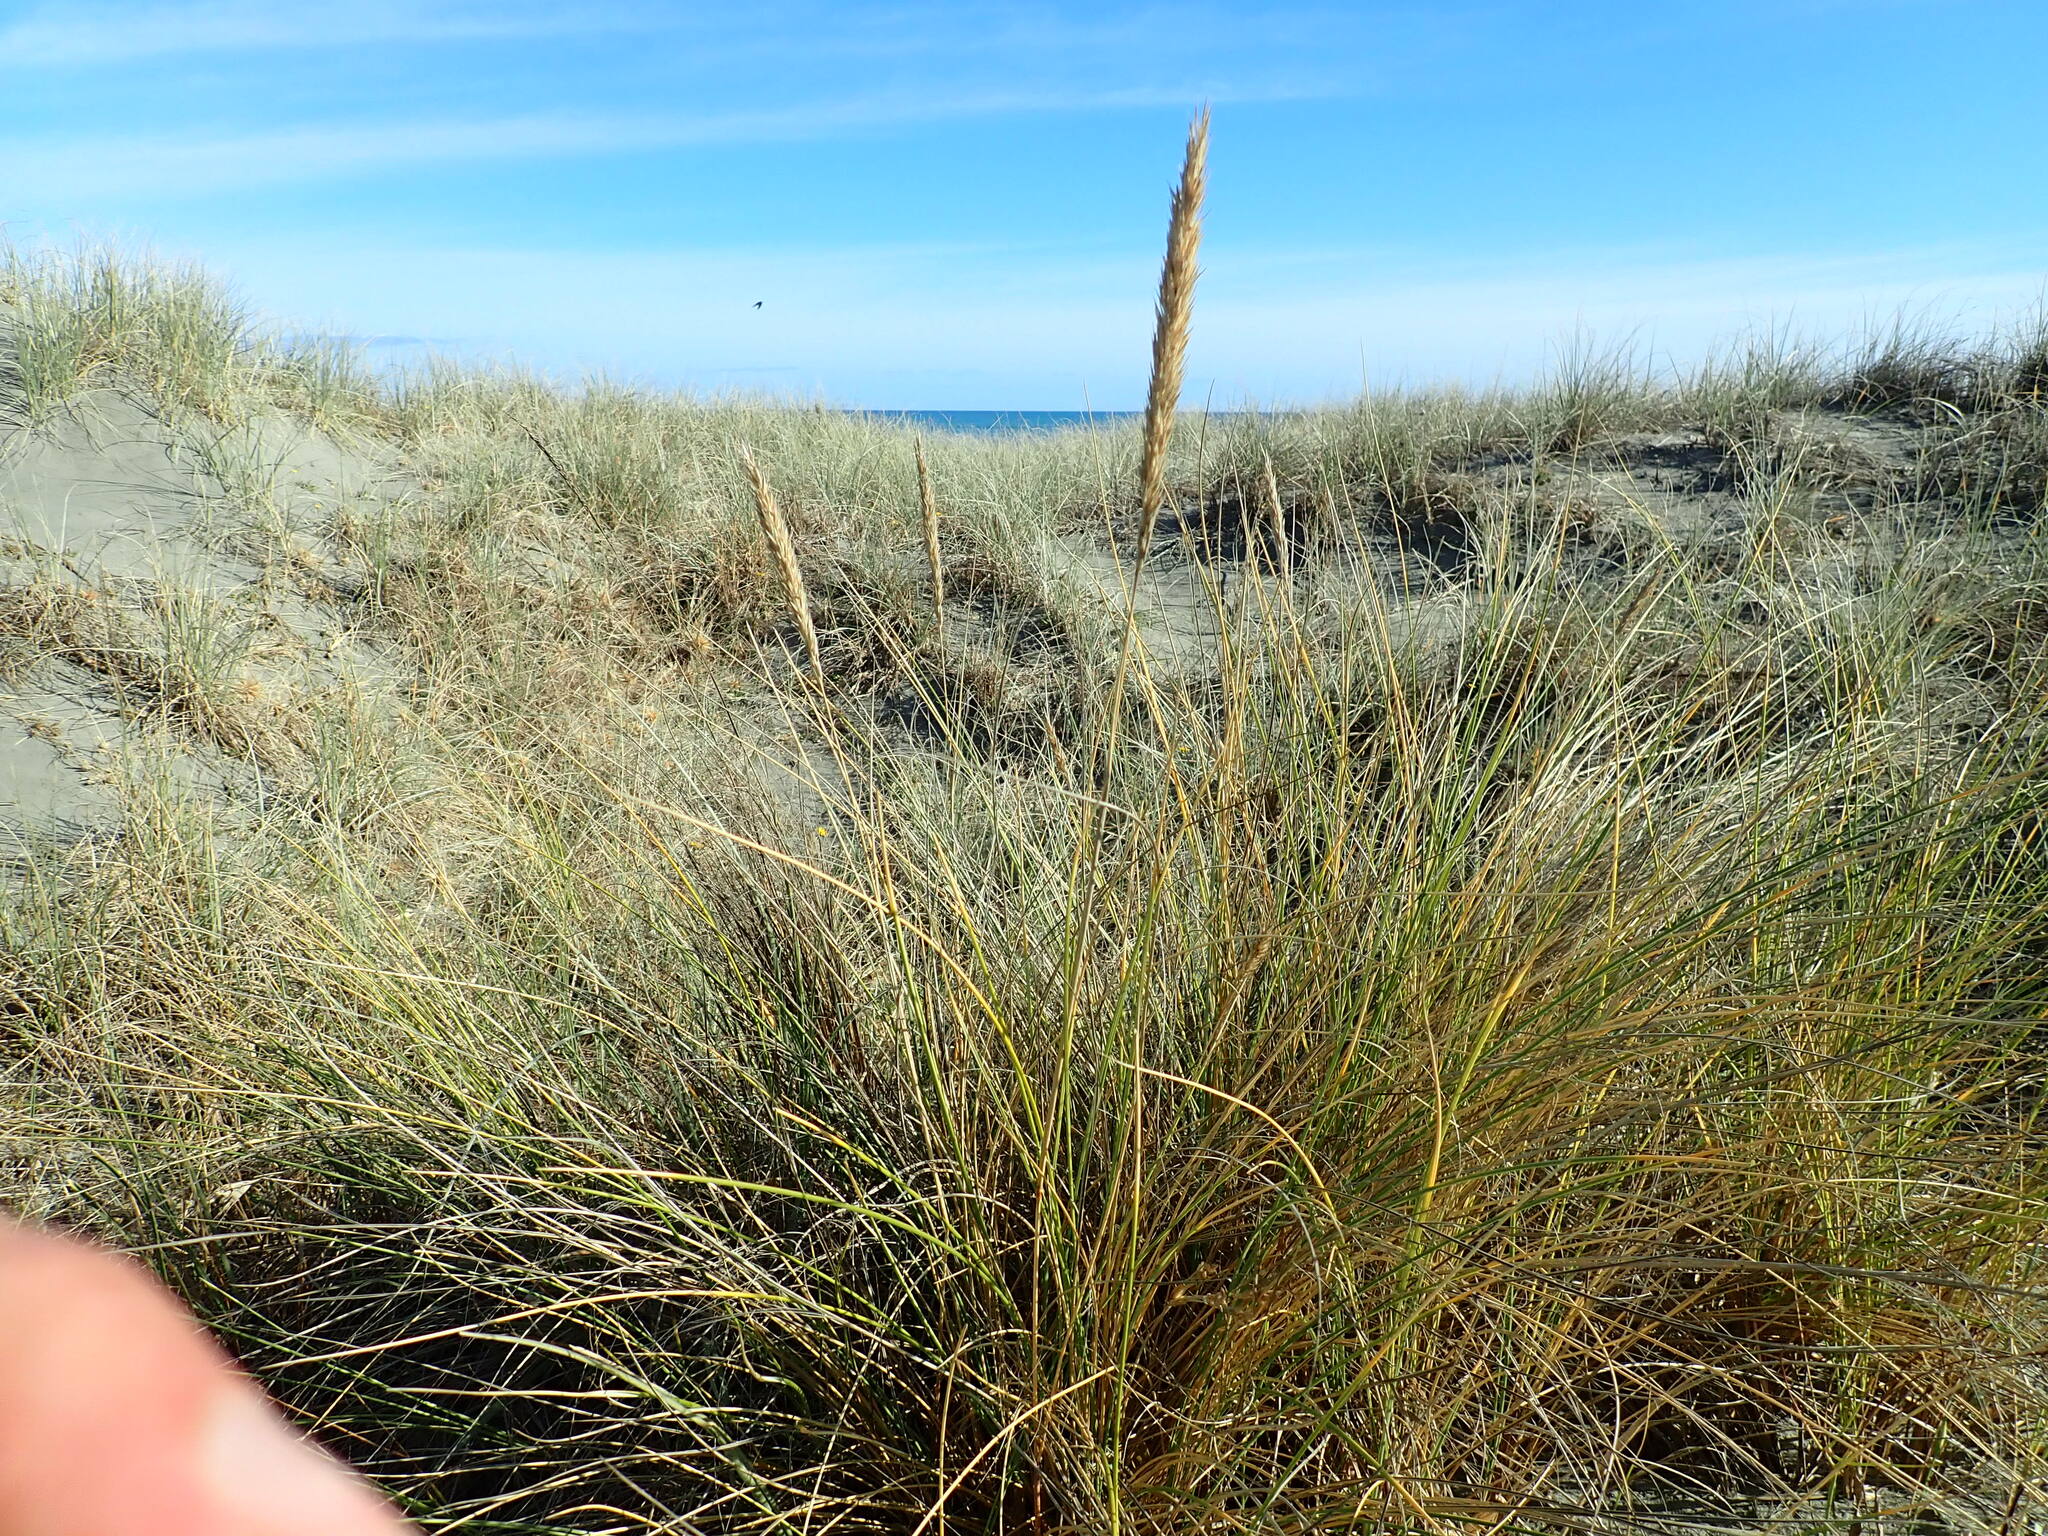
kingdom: Plantae
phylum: Tracheophyta
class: Liliopsida
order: Poales
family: Poaceae
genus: Calamagrostis
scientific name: Calamagrostis arenaria
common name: European beachgrass
